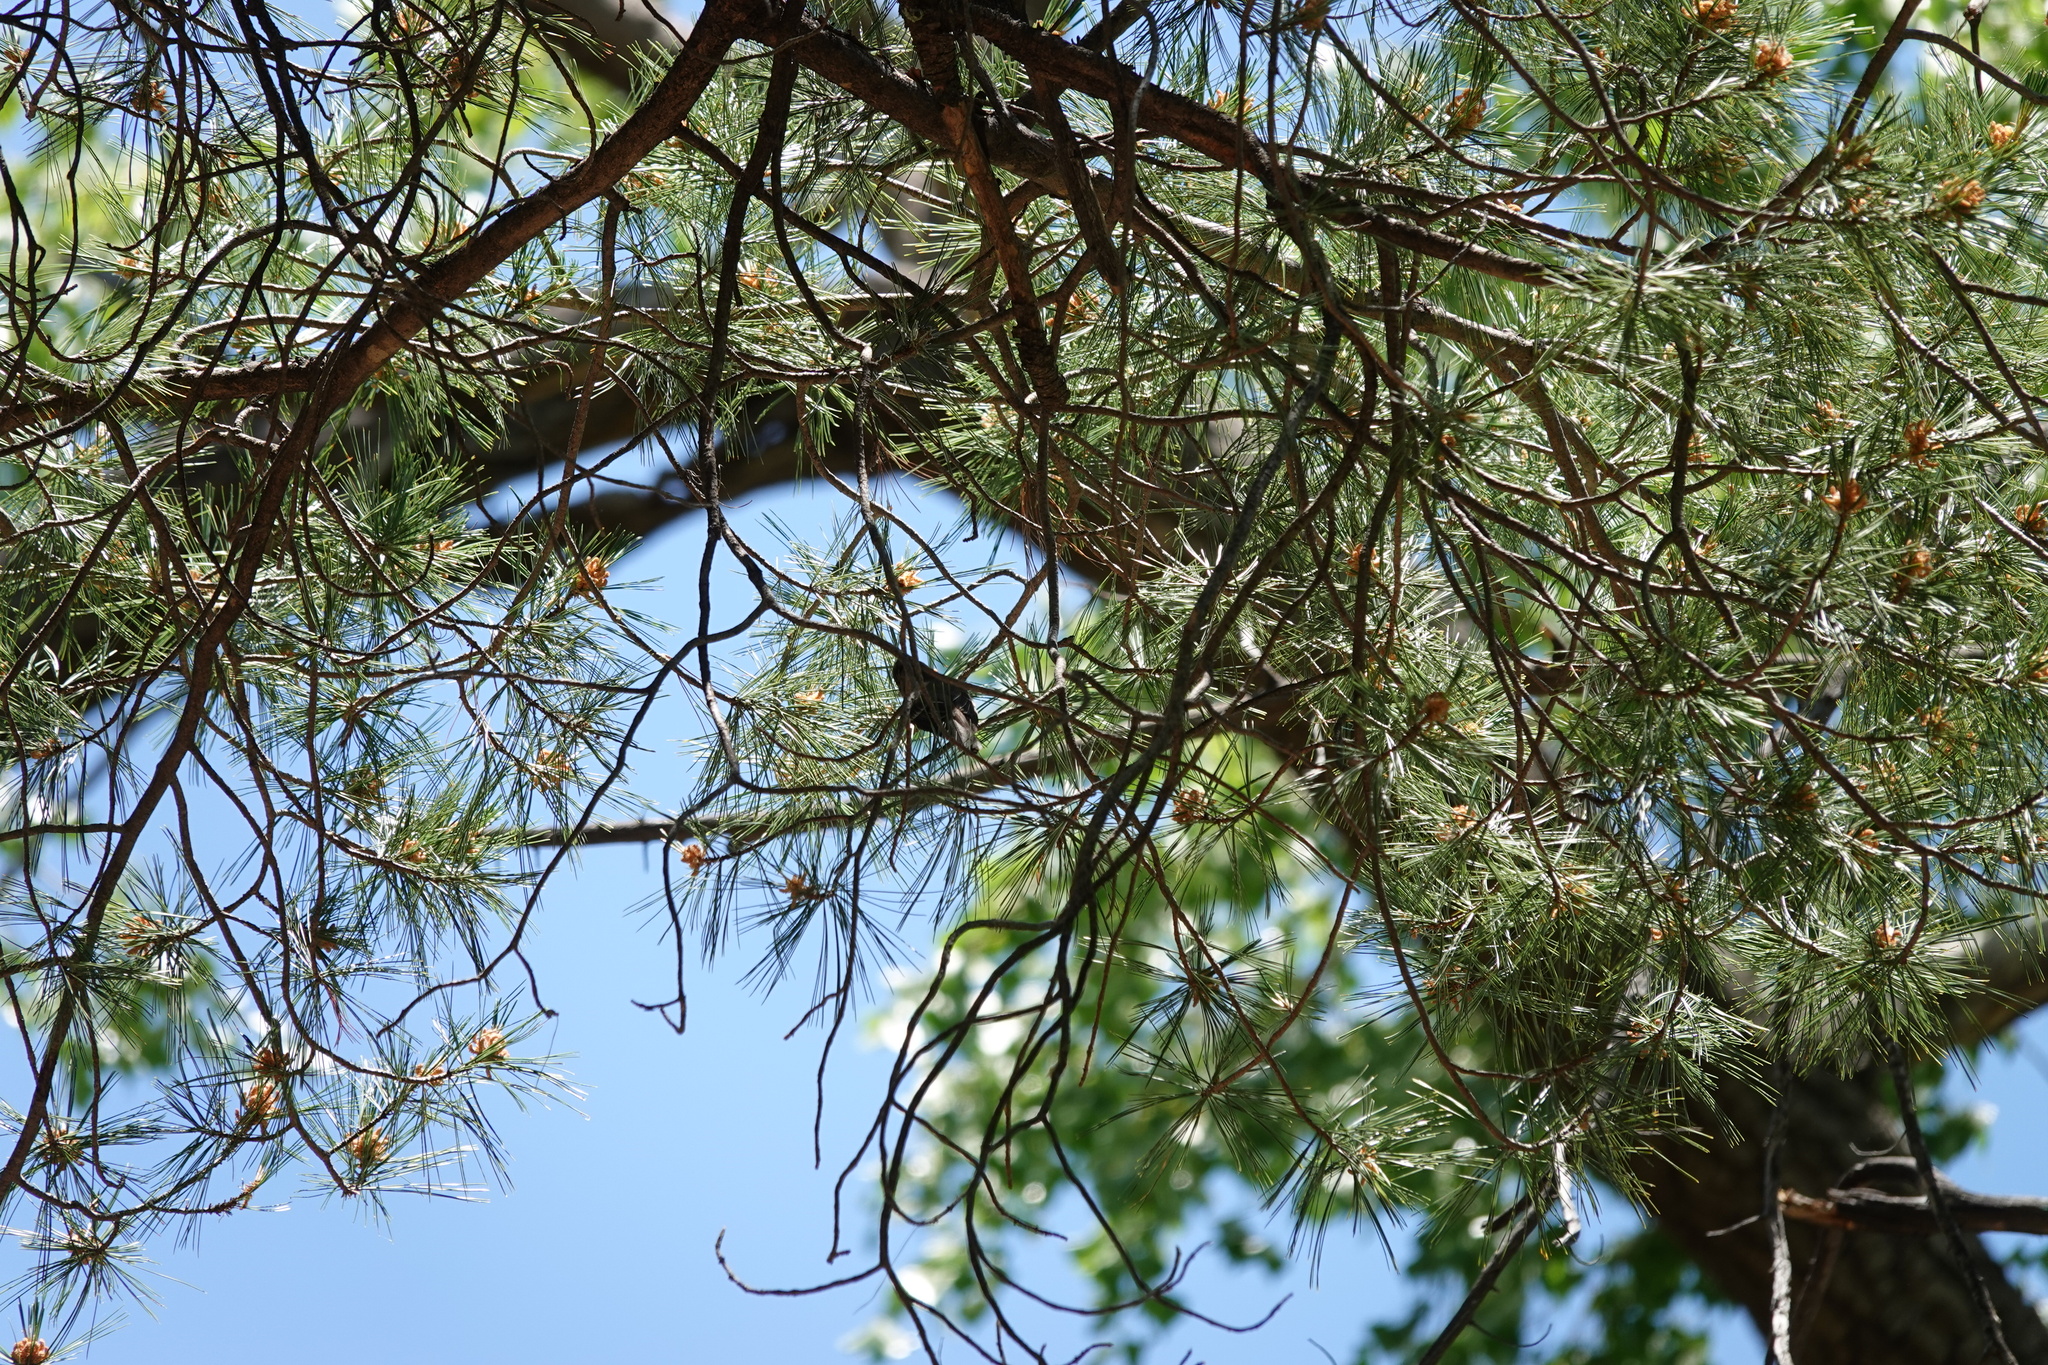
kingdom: Animalia
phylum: Chordata
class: Aves
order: Passeriformes
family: Tyrannidae
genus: Contopus
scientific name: Contopus sordidulus
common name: Western wood-pewee
